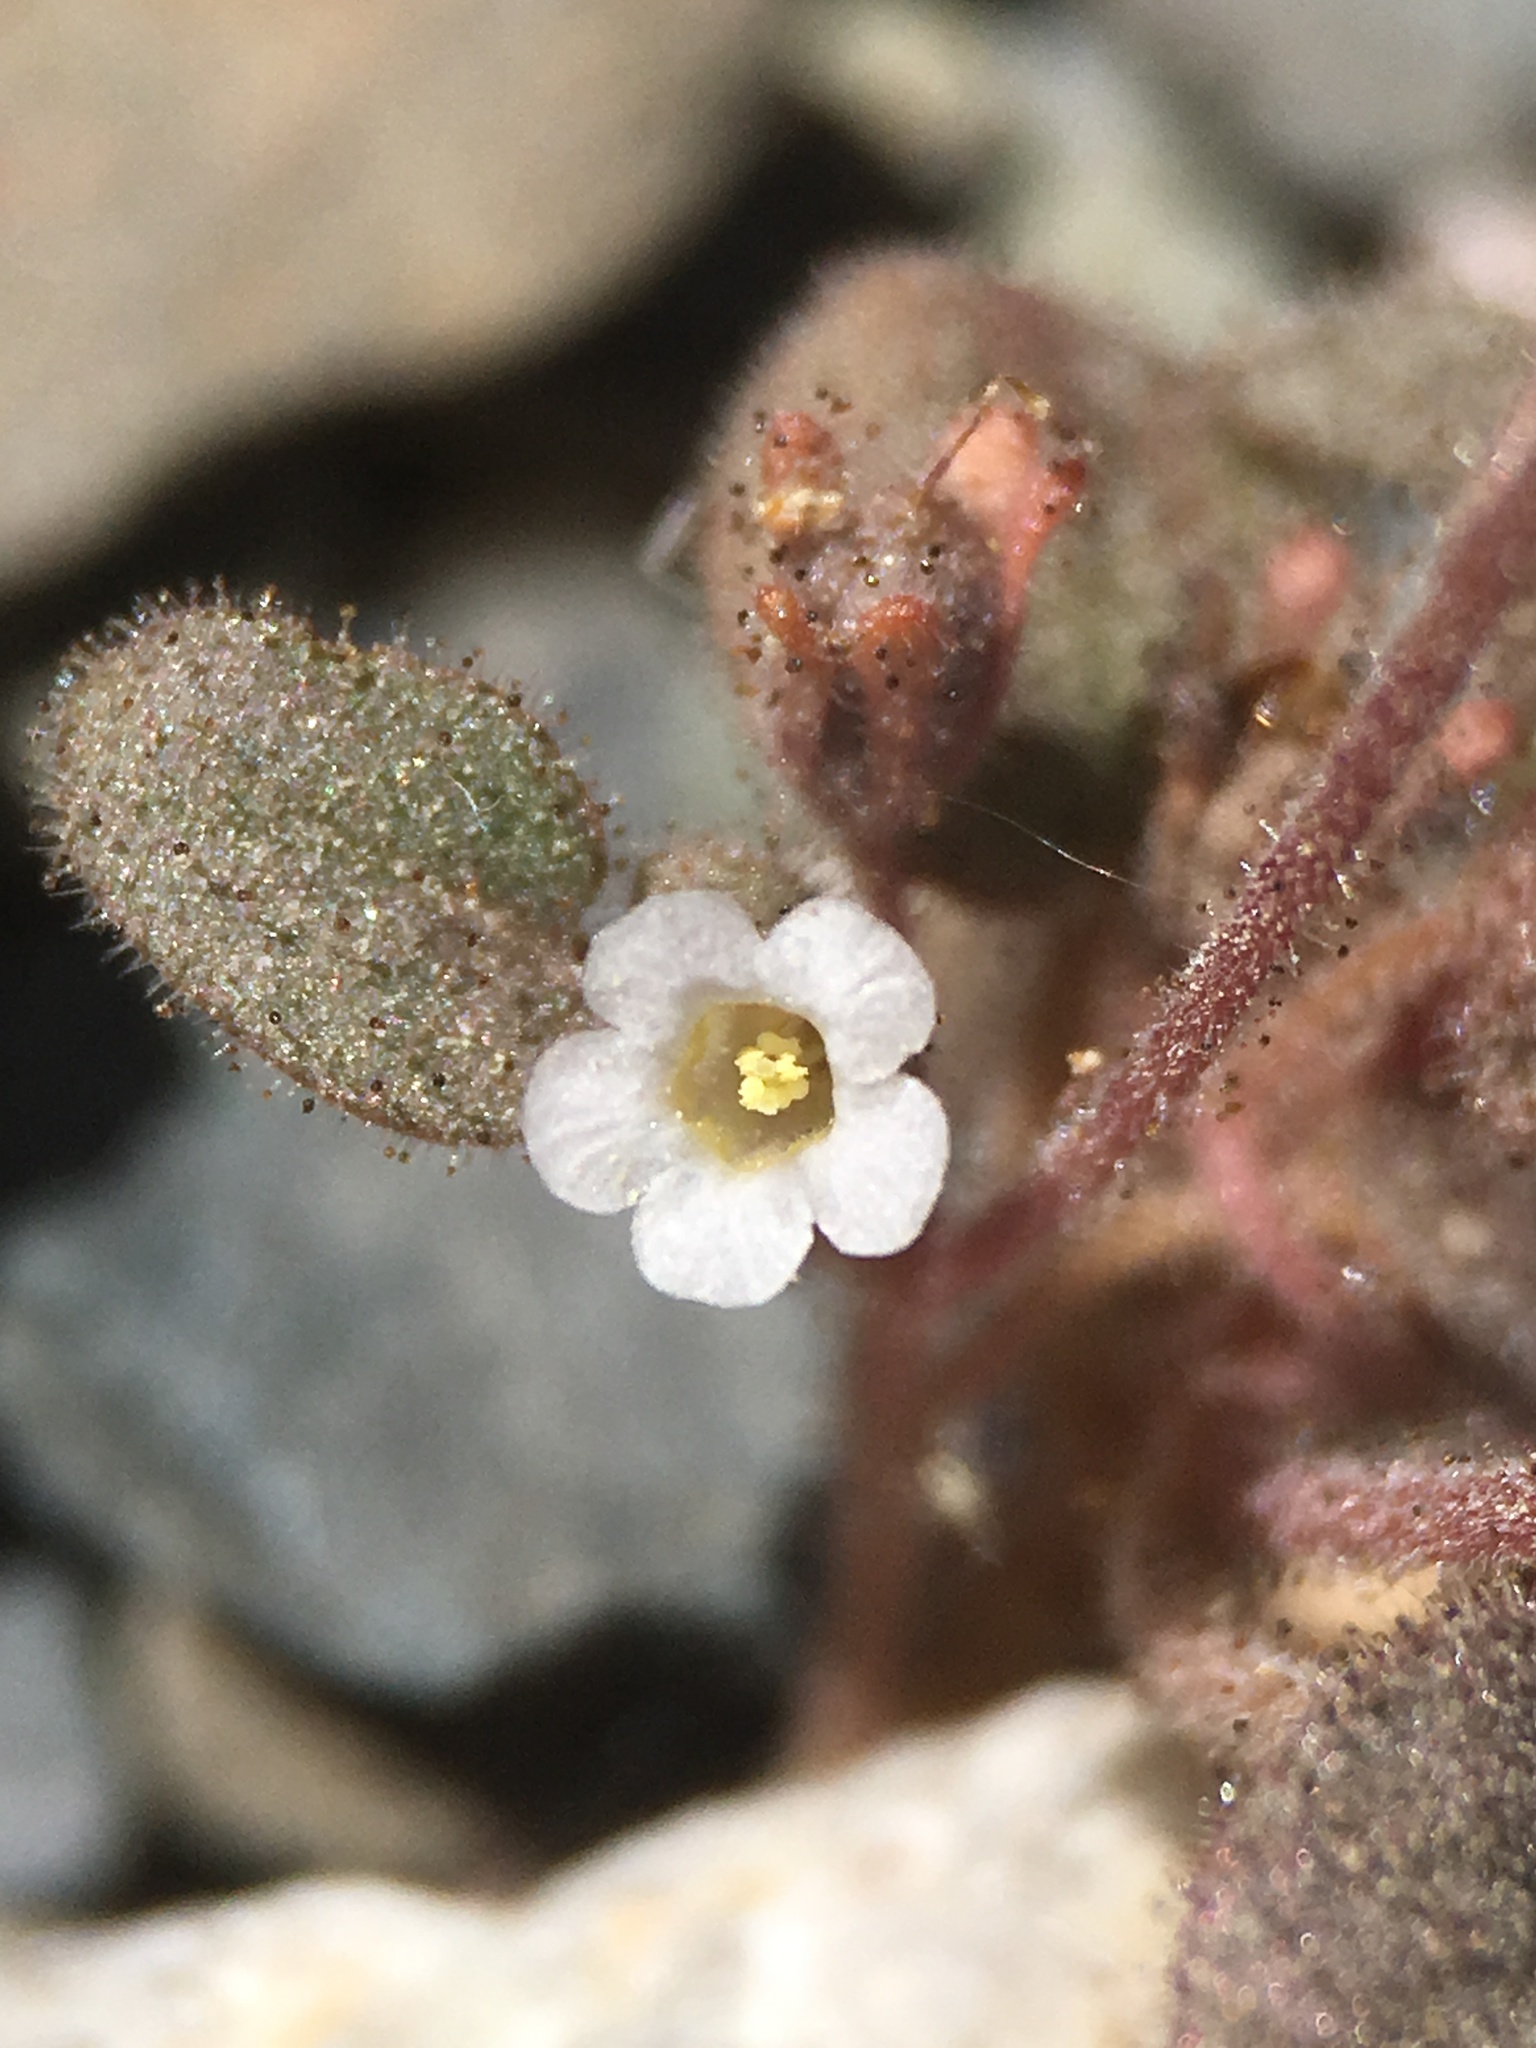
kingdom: Plantae
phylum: Tracheophyta
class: Magnoliopsida
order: Boraginales
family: Hydrophyllaceae
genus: Phacelia
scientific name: Phacelia barnebyana
